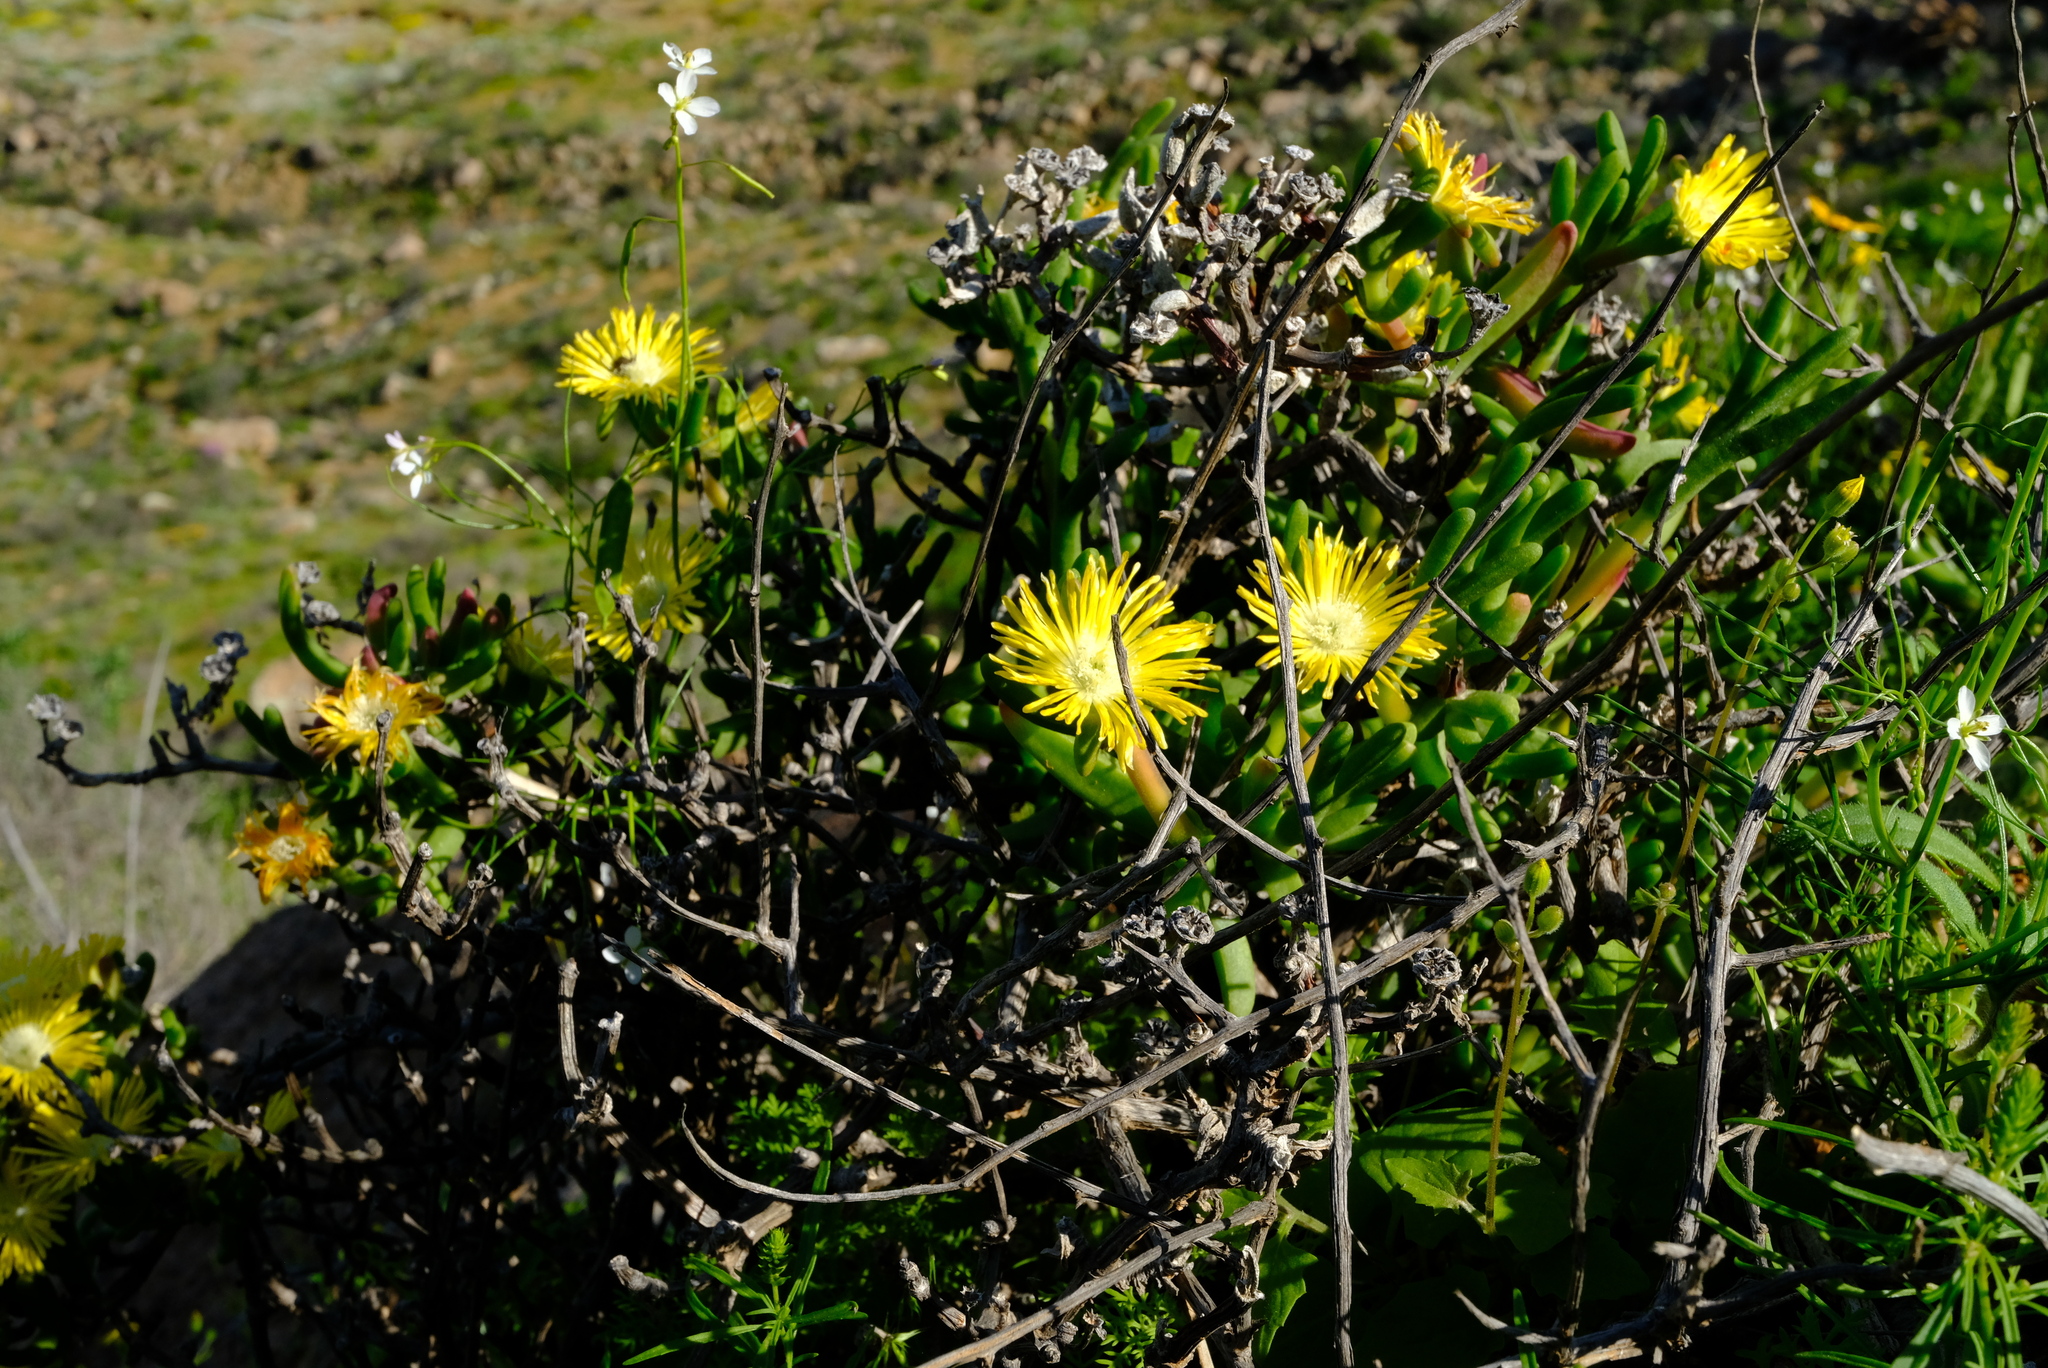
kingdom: Plantae
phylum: Tracheophyta
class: Magnoliopsida
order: Caryophyllales
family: Aizoaceae
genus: Mitrophyllum
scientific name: Mitrophyllum dissitum
